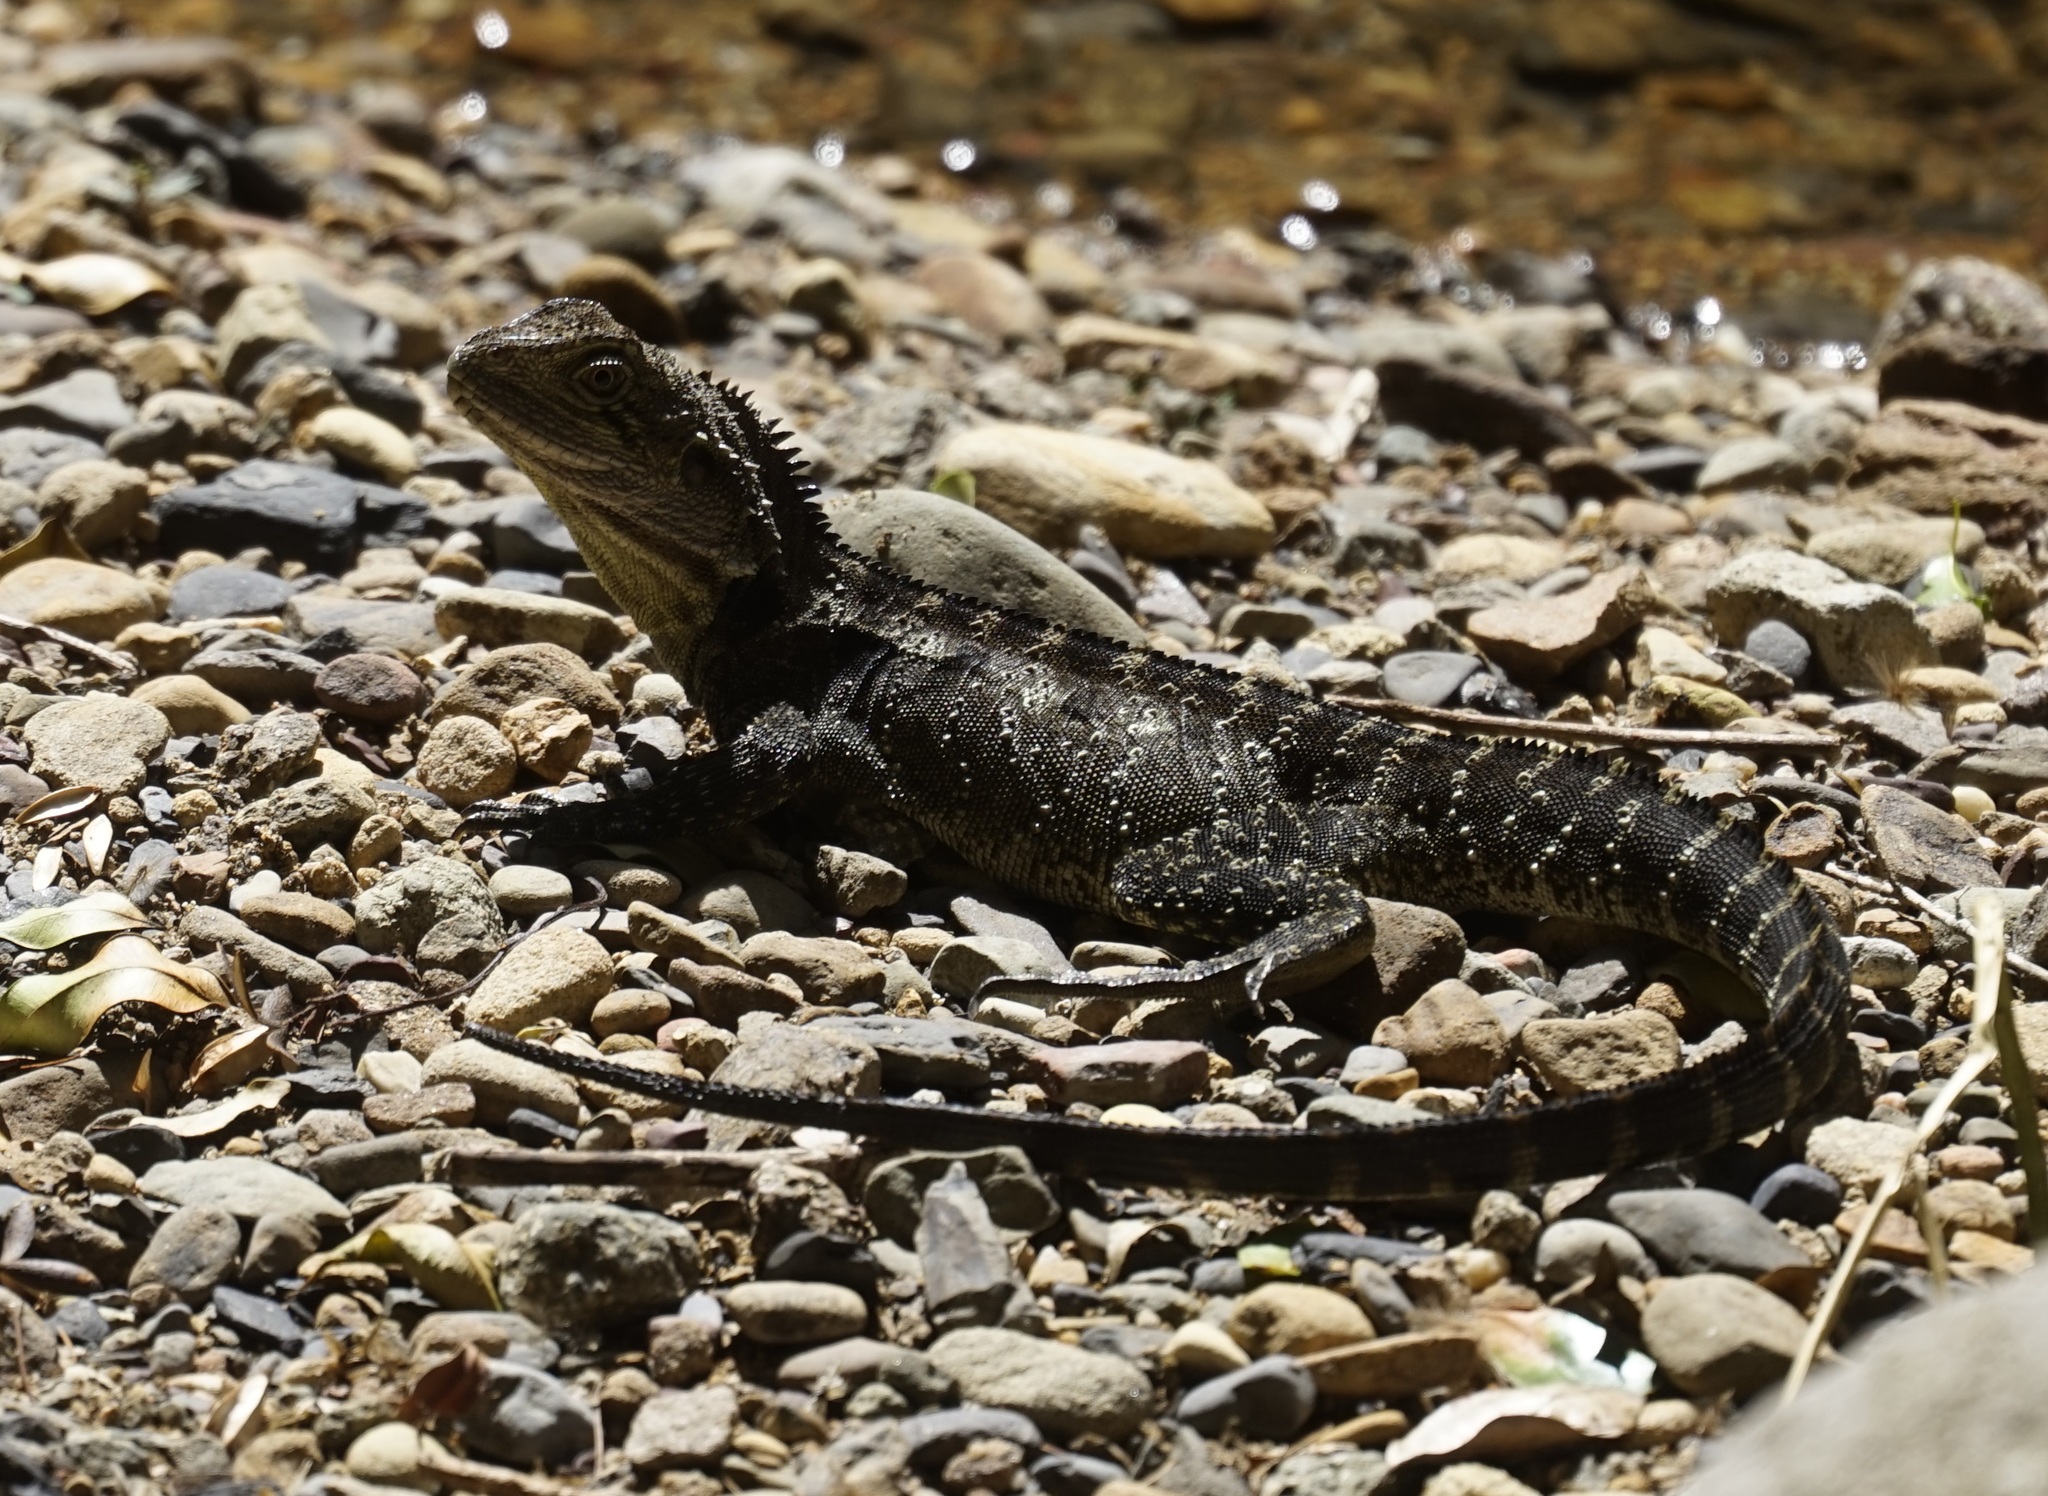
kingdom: Animalia
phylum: Chordata
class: Squamata
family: Agamidae
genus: Intellagama
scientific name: Intellagama lesueurii
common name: Eastern water dragon
